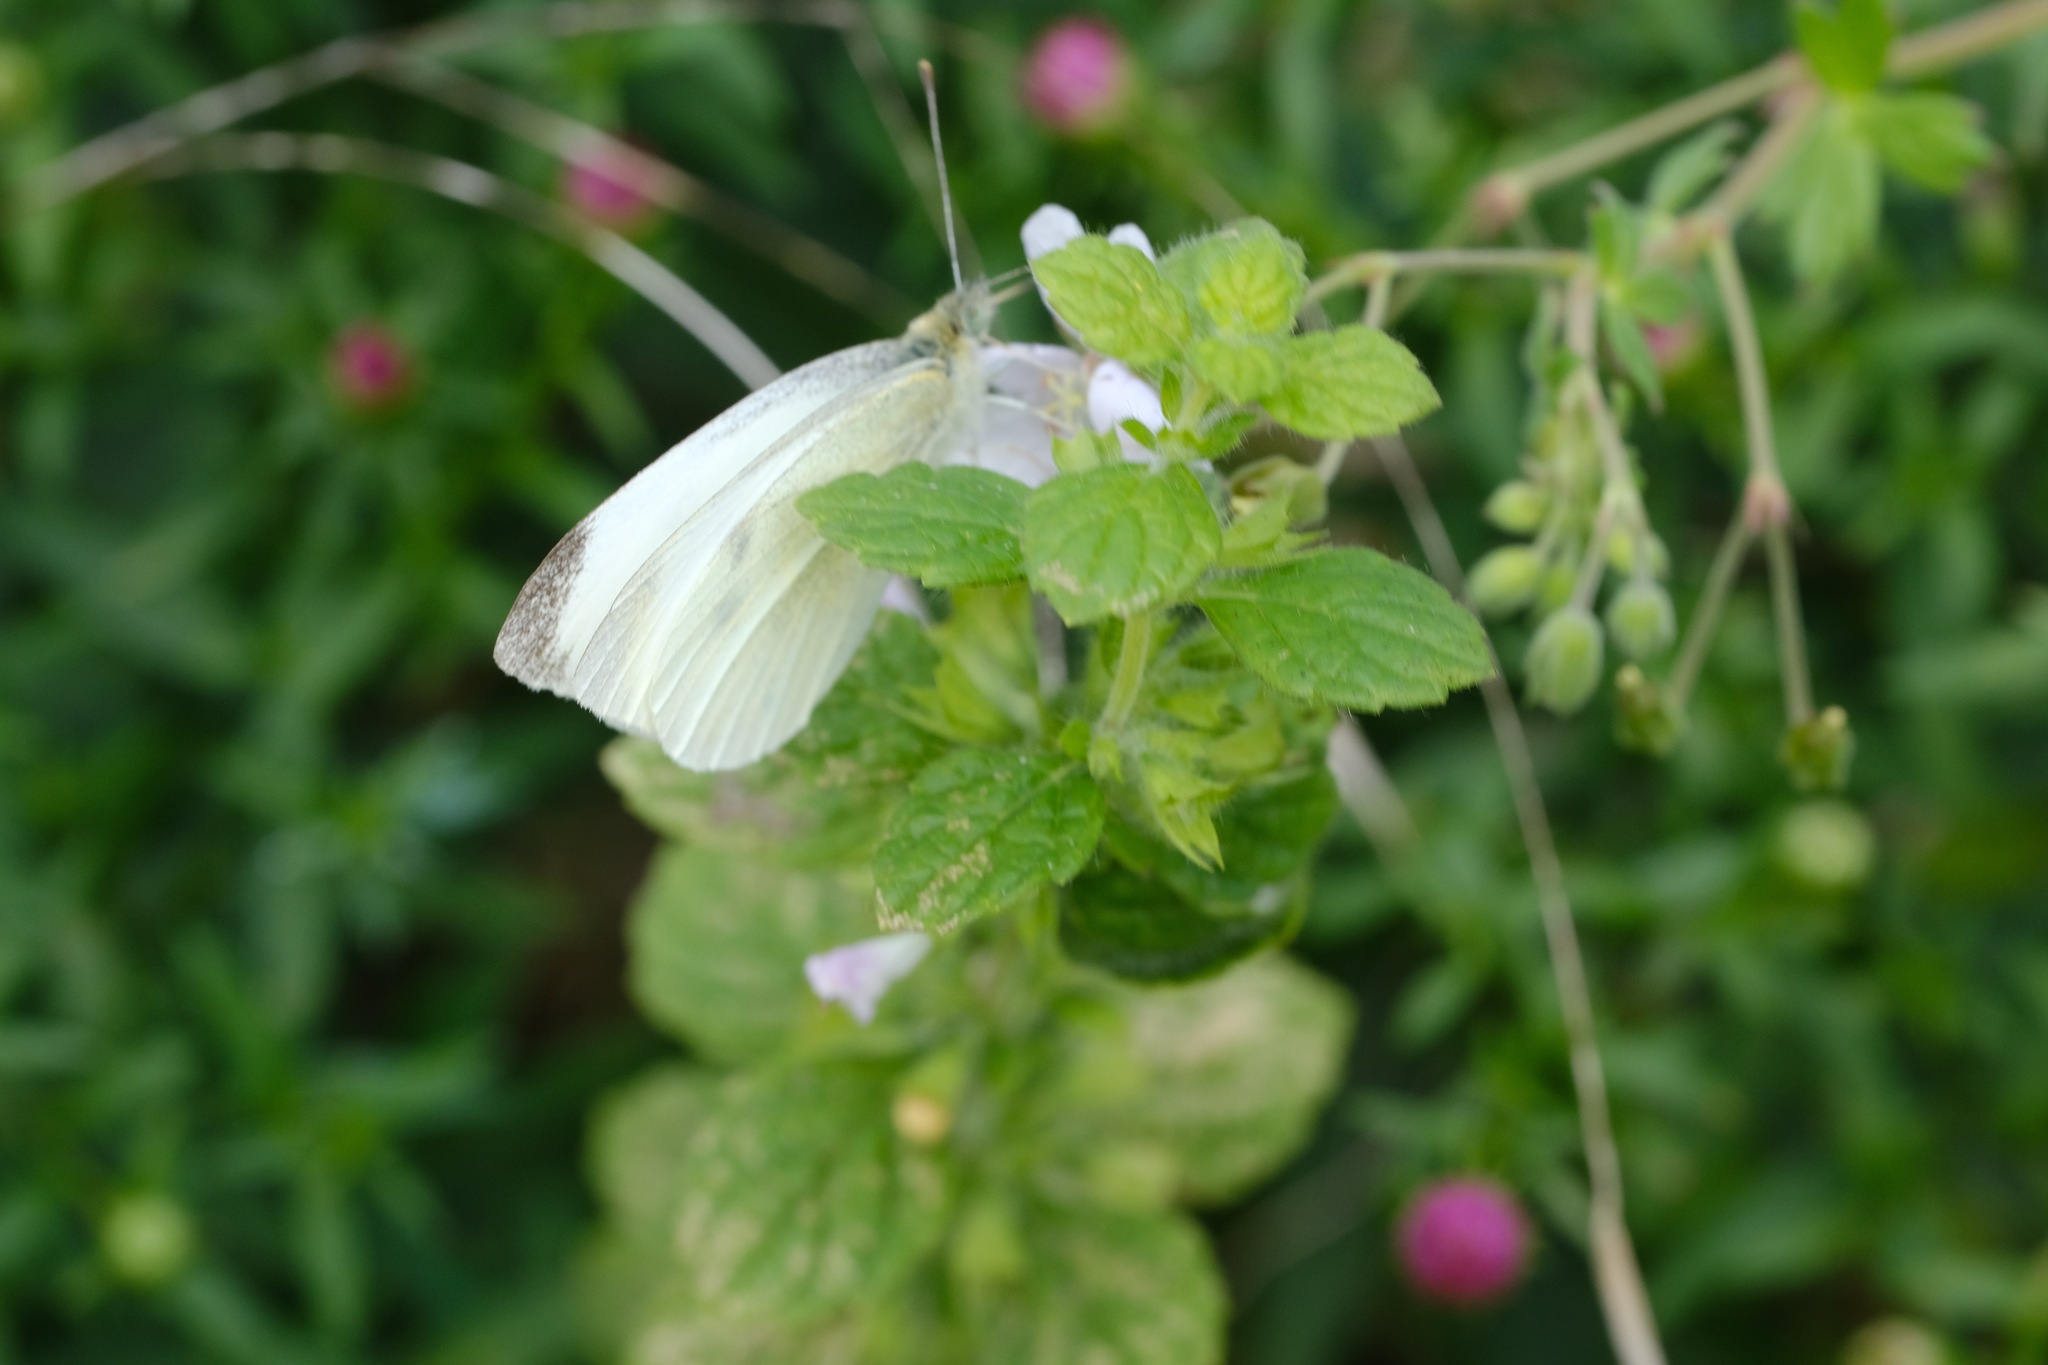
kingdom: Animalia
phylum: Arthropoda
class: Insecta
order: Lepidoptera
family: Pieridae
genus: Pieris
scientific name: Pieris rapae
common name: Small white
